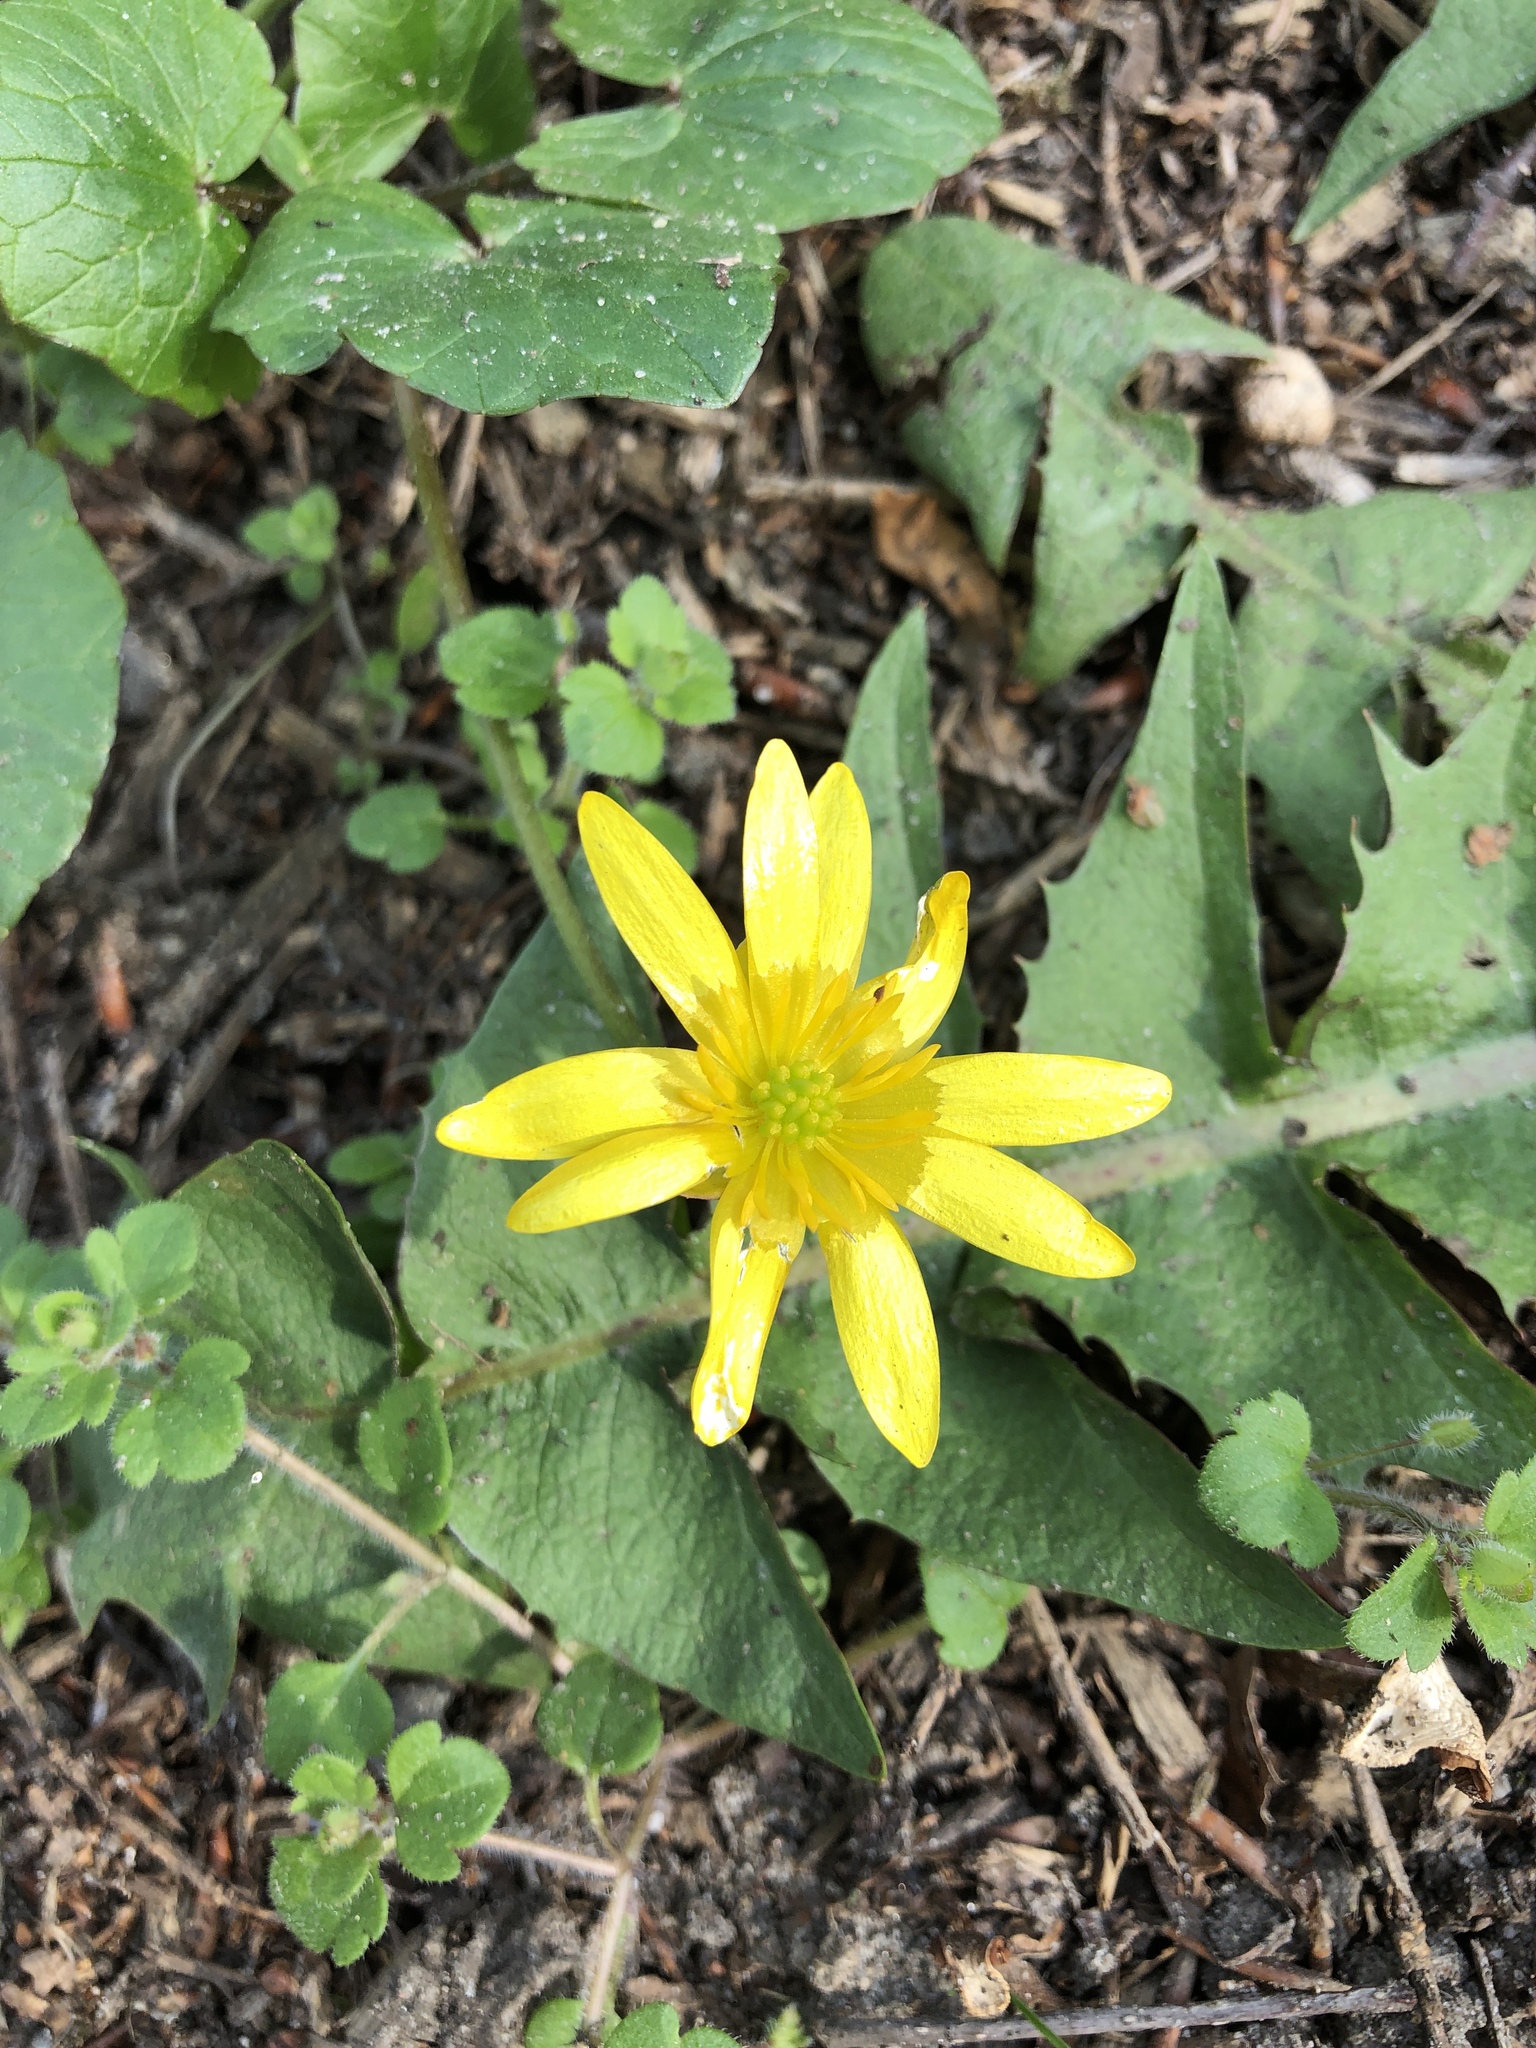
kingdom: Plantae
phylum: Tracheophyta
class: Magnoliopsida
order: Ranunculales
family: Ranunculaceae
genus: Ficaria
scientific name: Ficaria verna
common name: Lesser celandine
